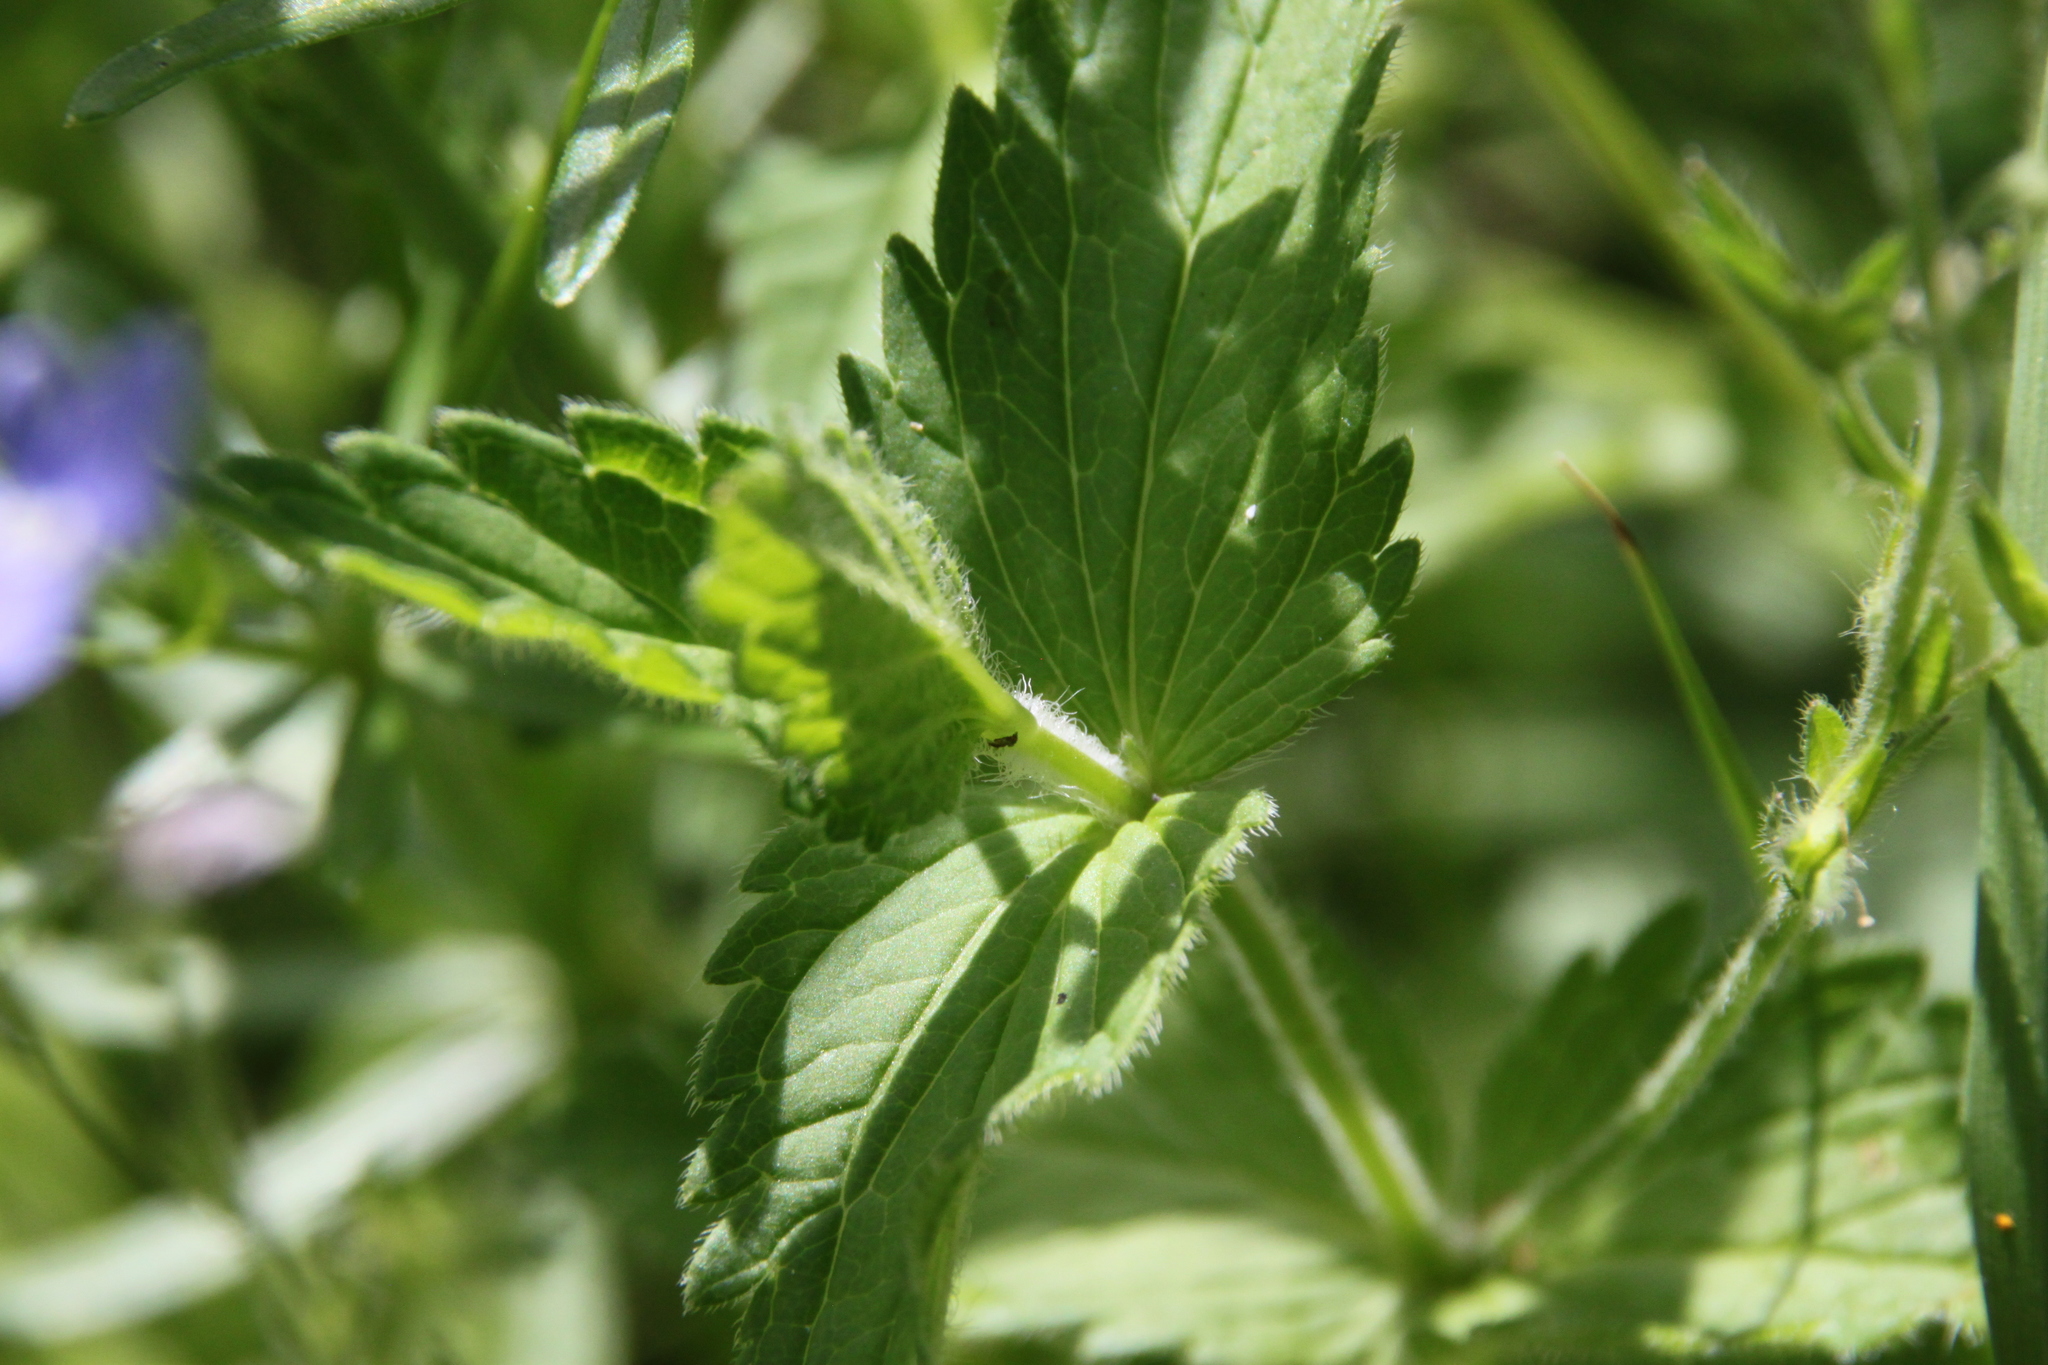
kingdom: Plantae
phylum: Tracheophyta
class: Magnoliopsida
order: Lamiales
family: Plantaginaceae
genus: Veronica
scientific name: Veronica chamaedrys
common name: Germander speedwell
